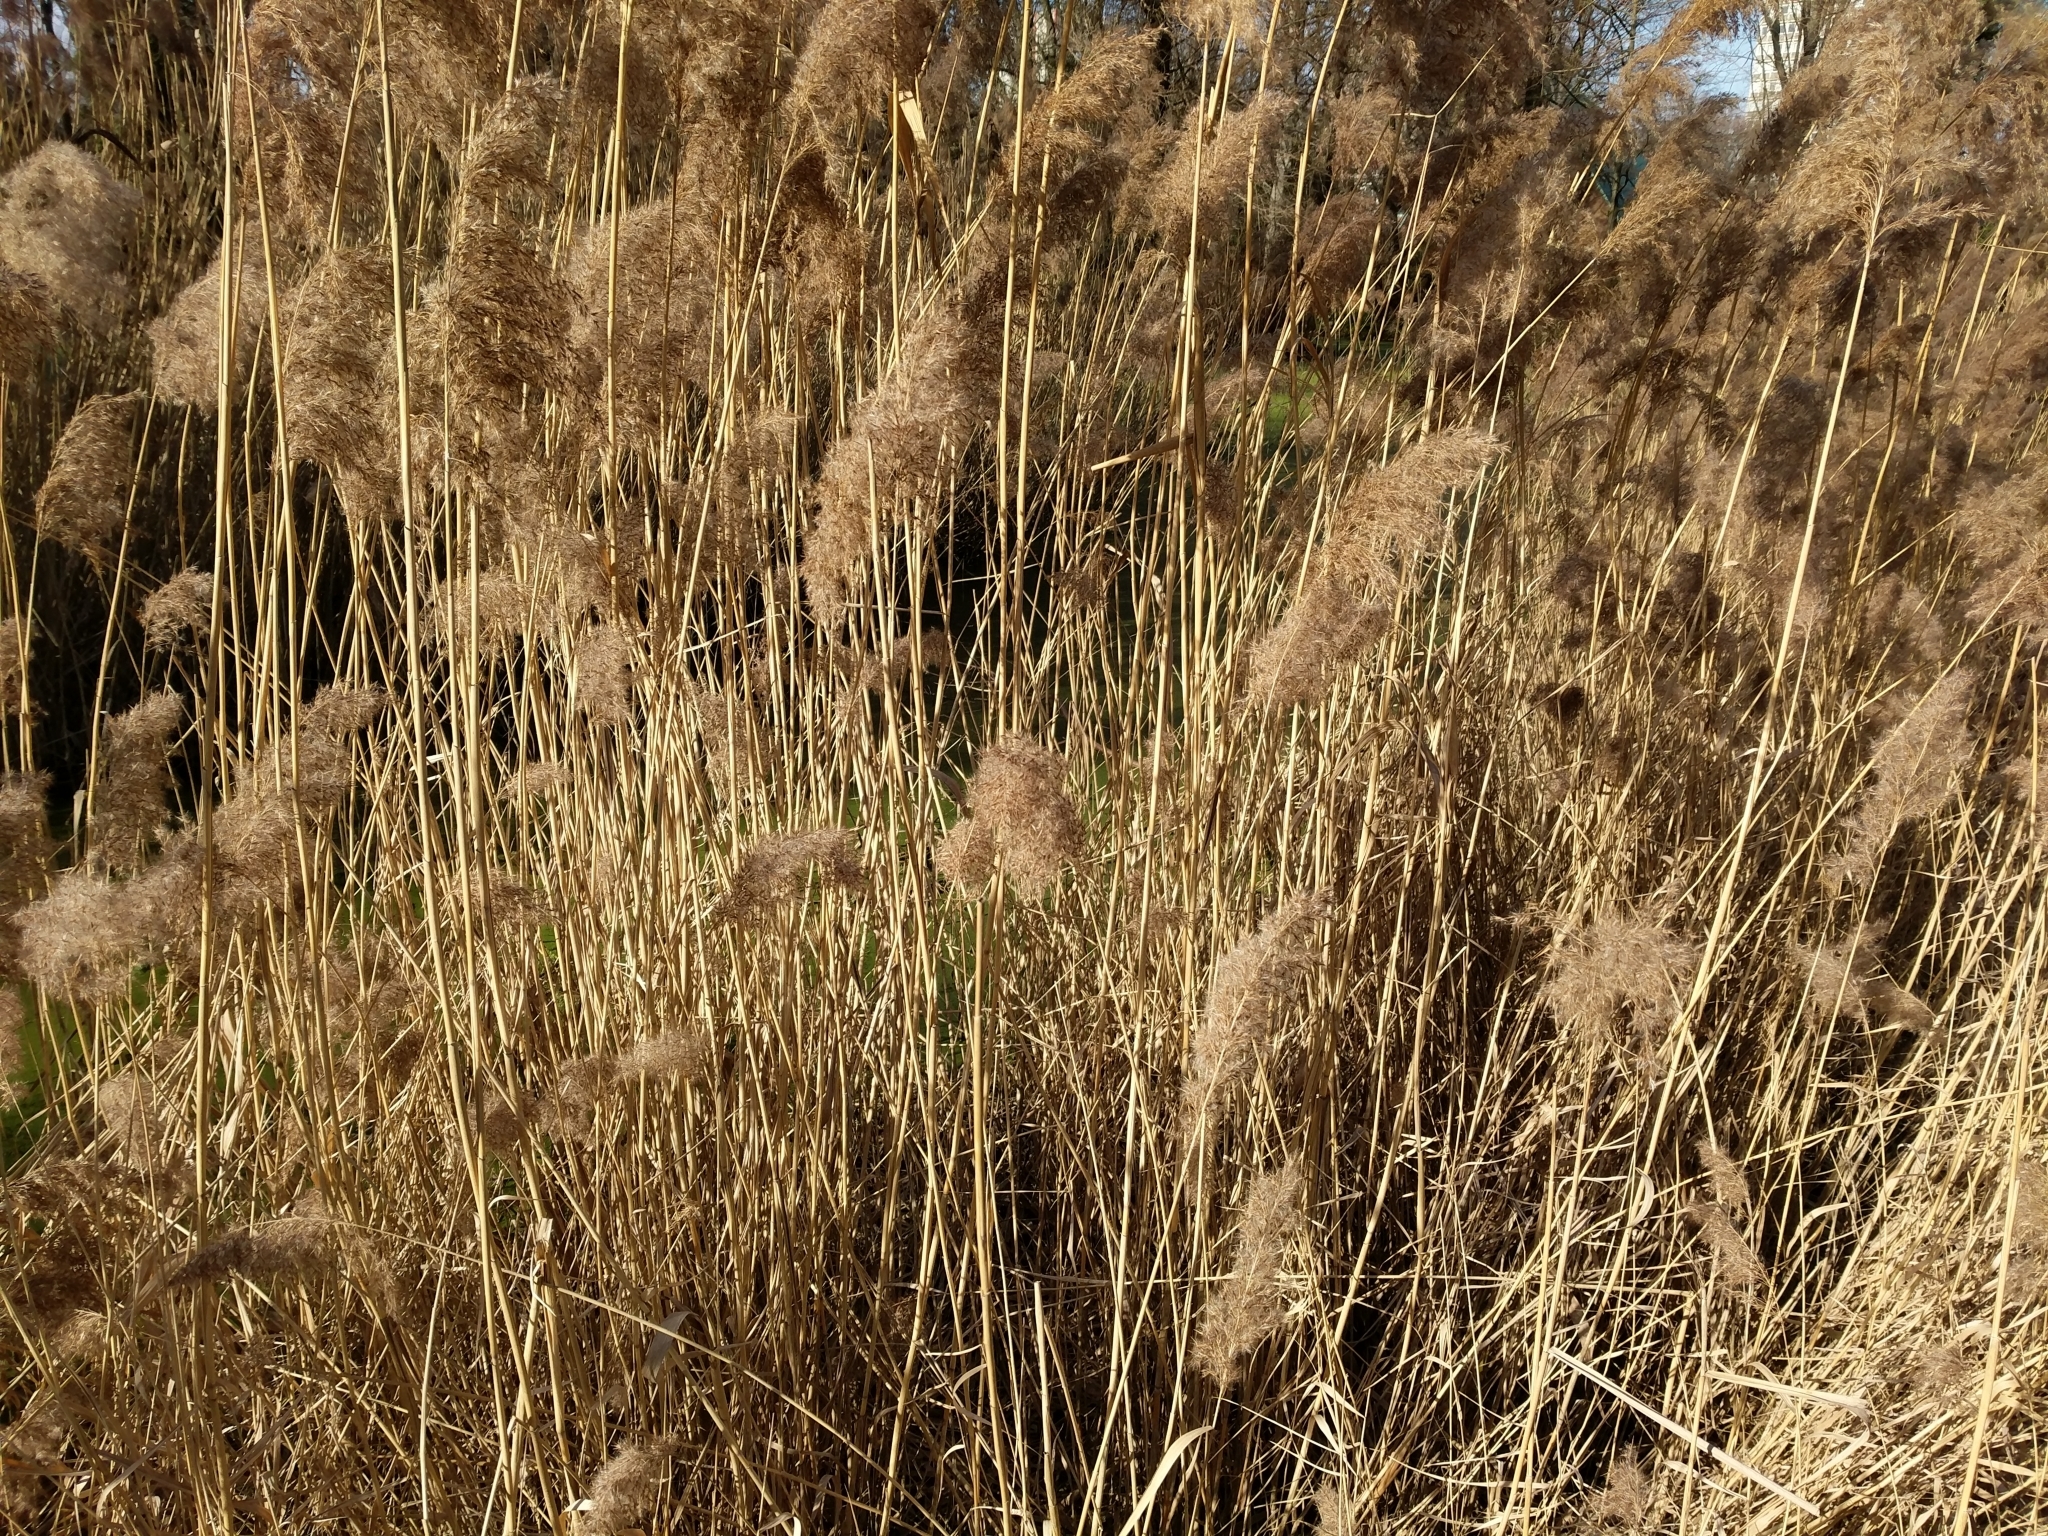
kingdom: Plantae
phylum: Tracheophyta
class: Liliopsida
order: Poales
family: Poaceae
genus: Phragmites
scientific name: Phragmites australis
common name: Common reed
